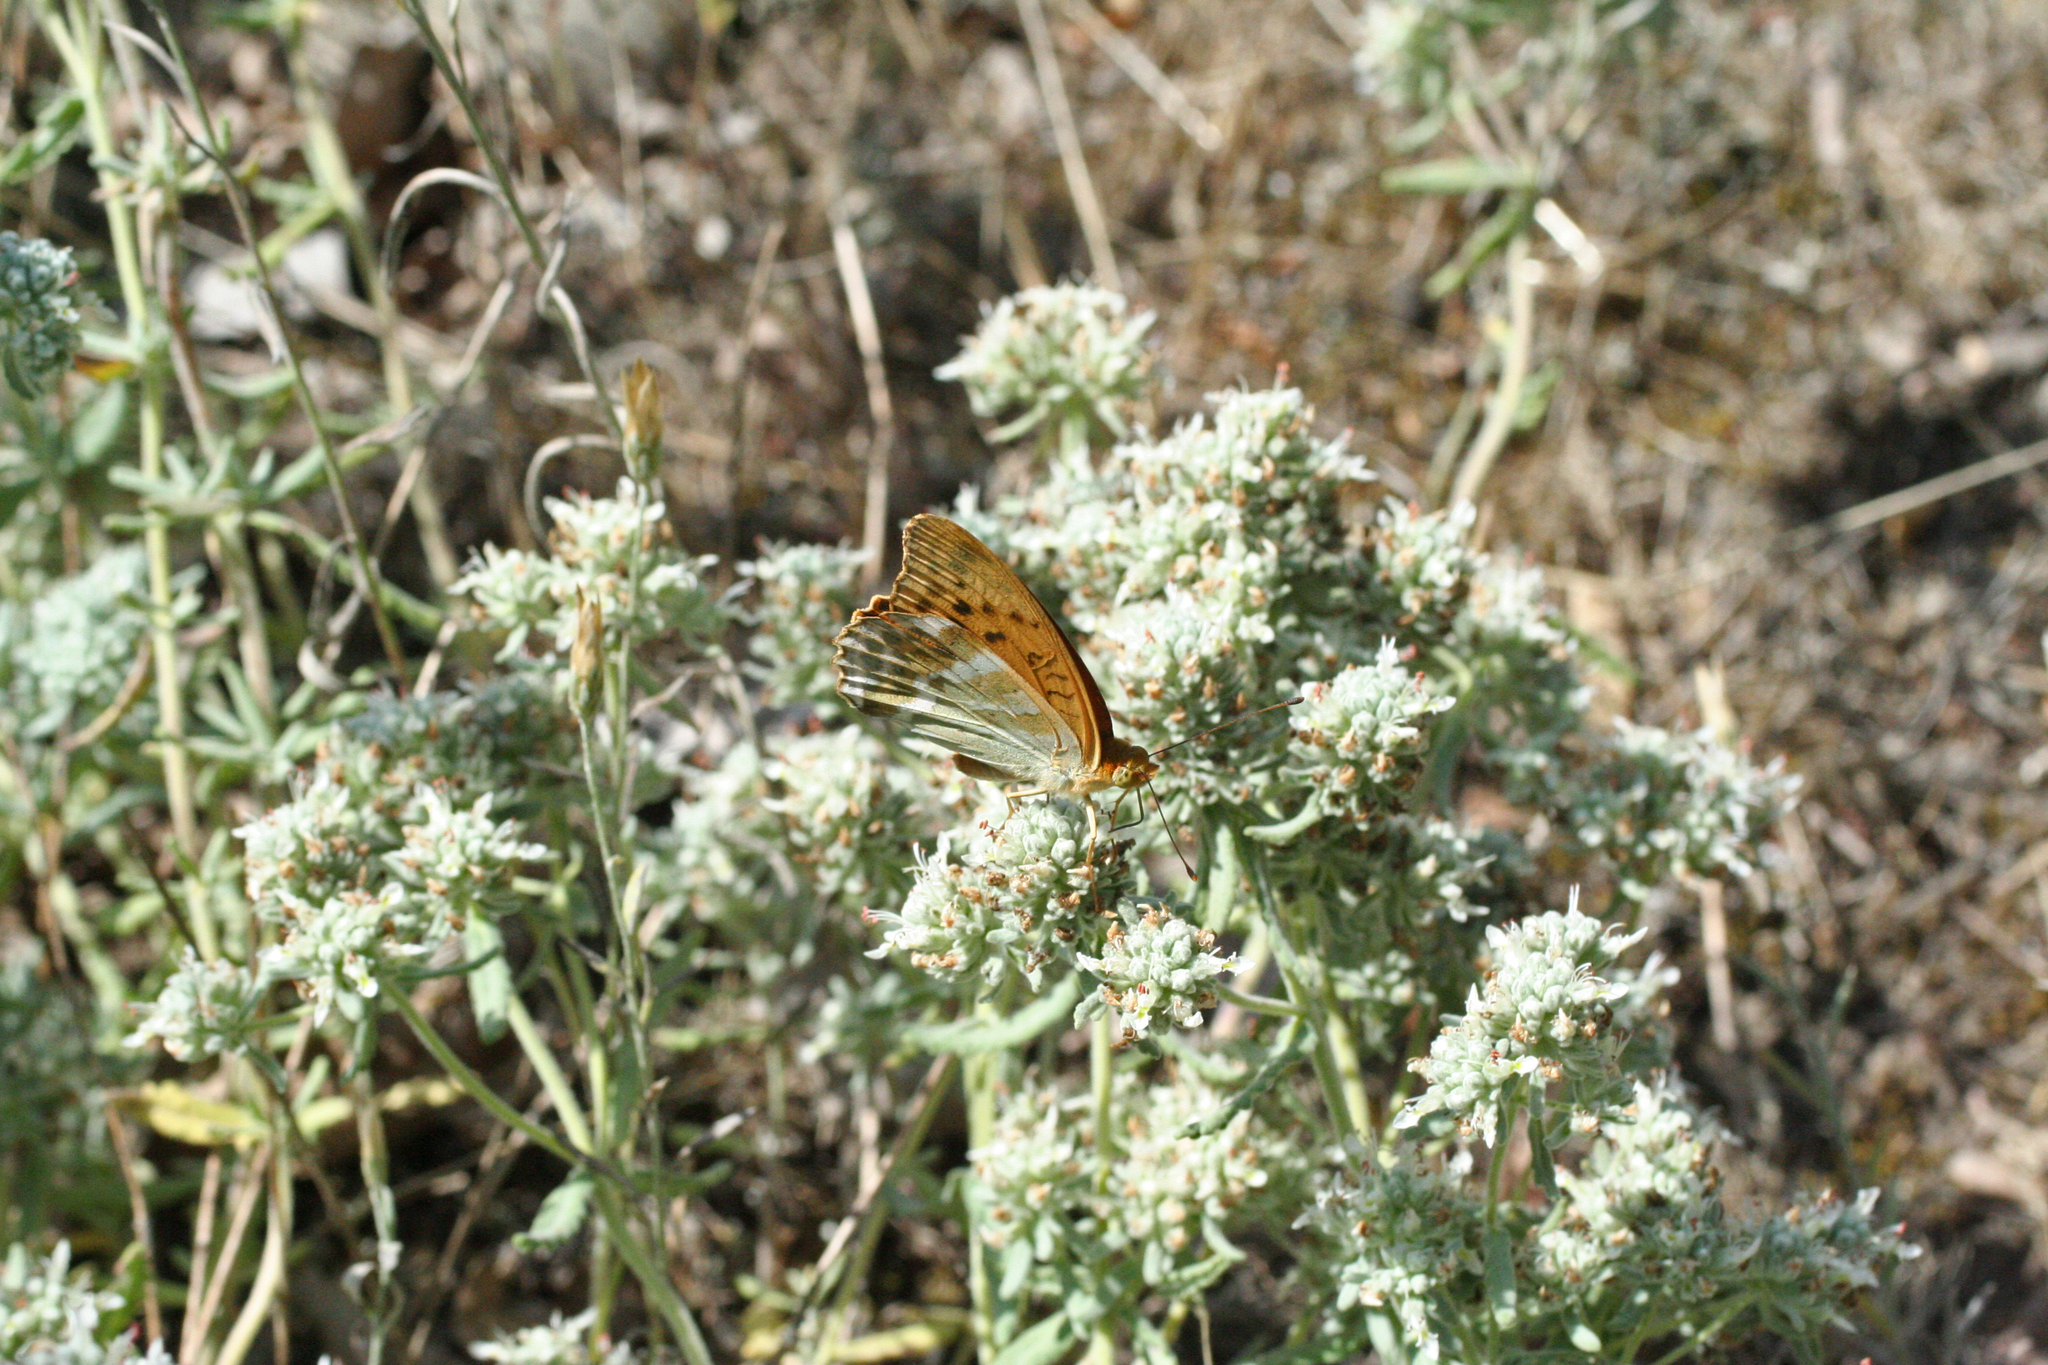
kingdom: Plantae
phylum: Tracheophyta
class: Magnoliopsida
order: Lamiales
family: Lamiaceae
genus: Teucrium
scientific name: Teucrium polium
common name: Poley
